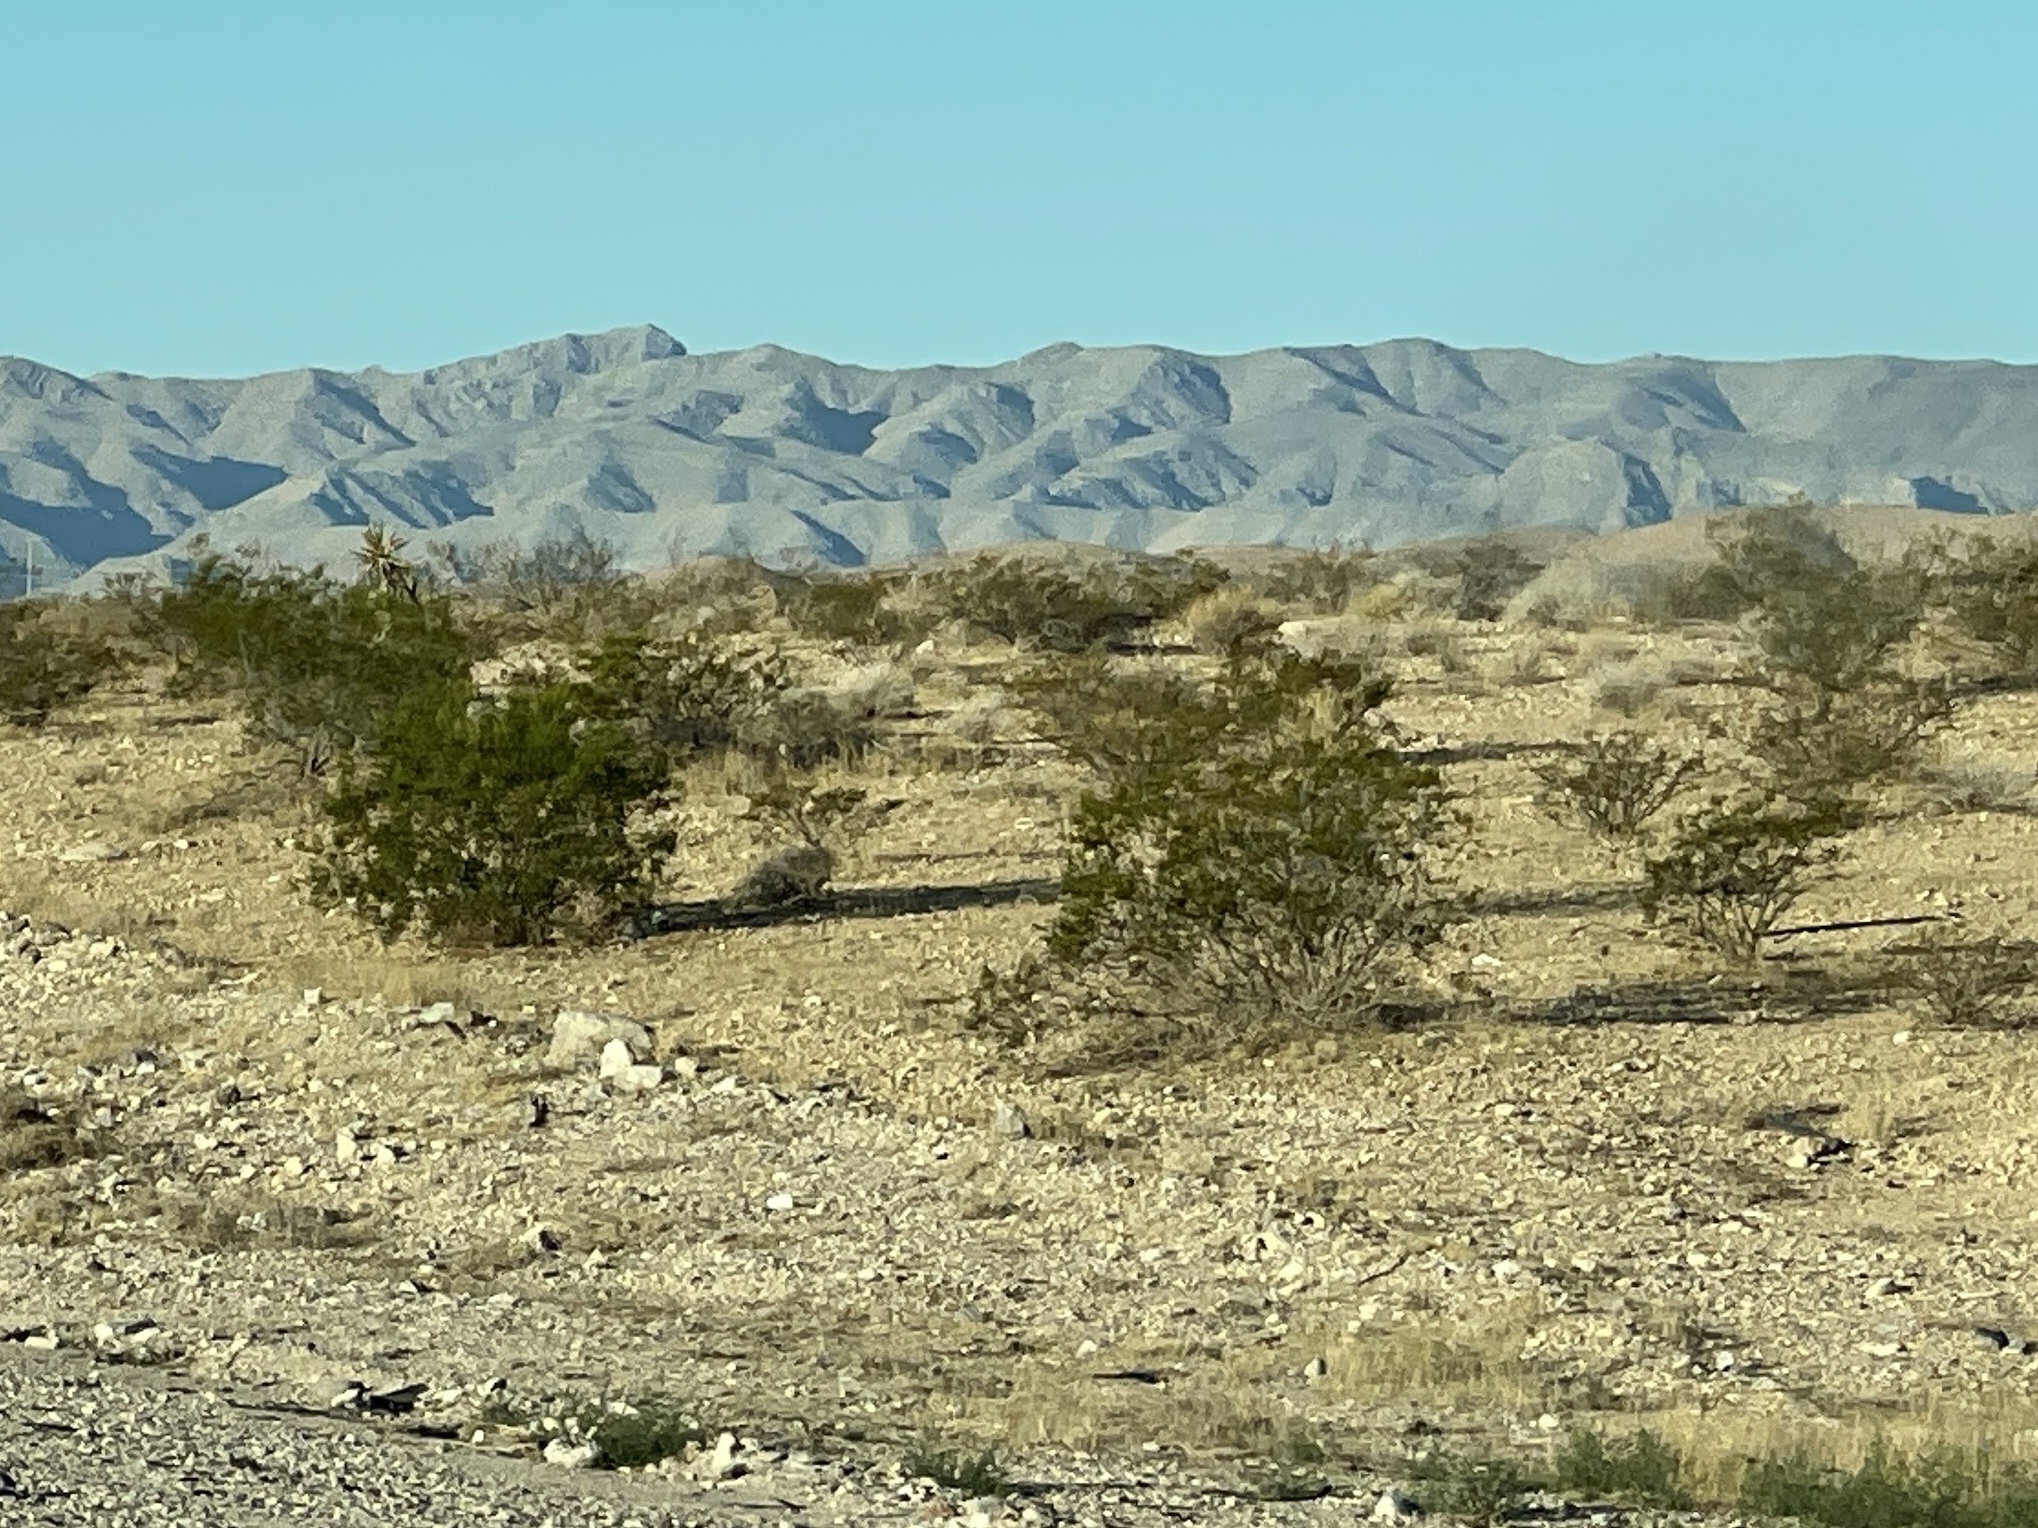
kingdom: Plantae
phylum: Tracheophyta
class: Magnoliopsida
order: Zygophyllales
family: Zygophyllaceae
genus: Larrea
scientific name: Larrea tridentata
